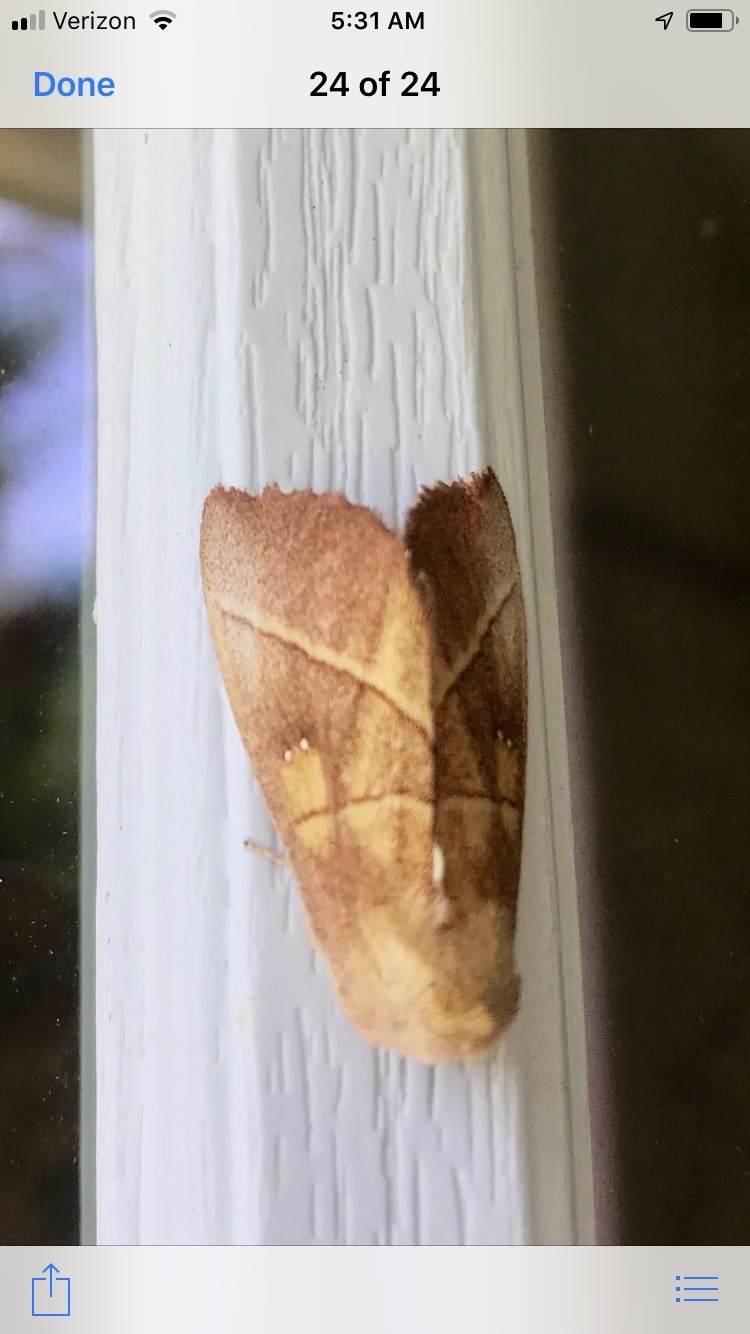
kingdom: Animalia
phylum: Arthropoda
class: Insecta
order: Lepidoptera
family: Notodontidae
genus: Nadata
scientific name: Nadata gibbosa
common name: White-dotted prominent
